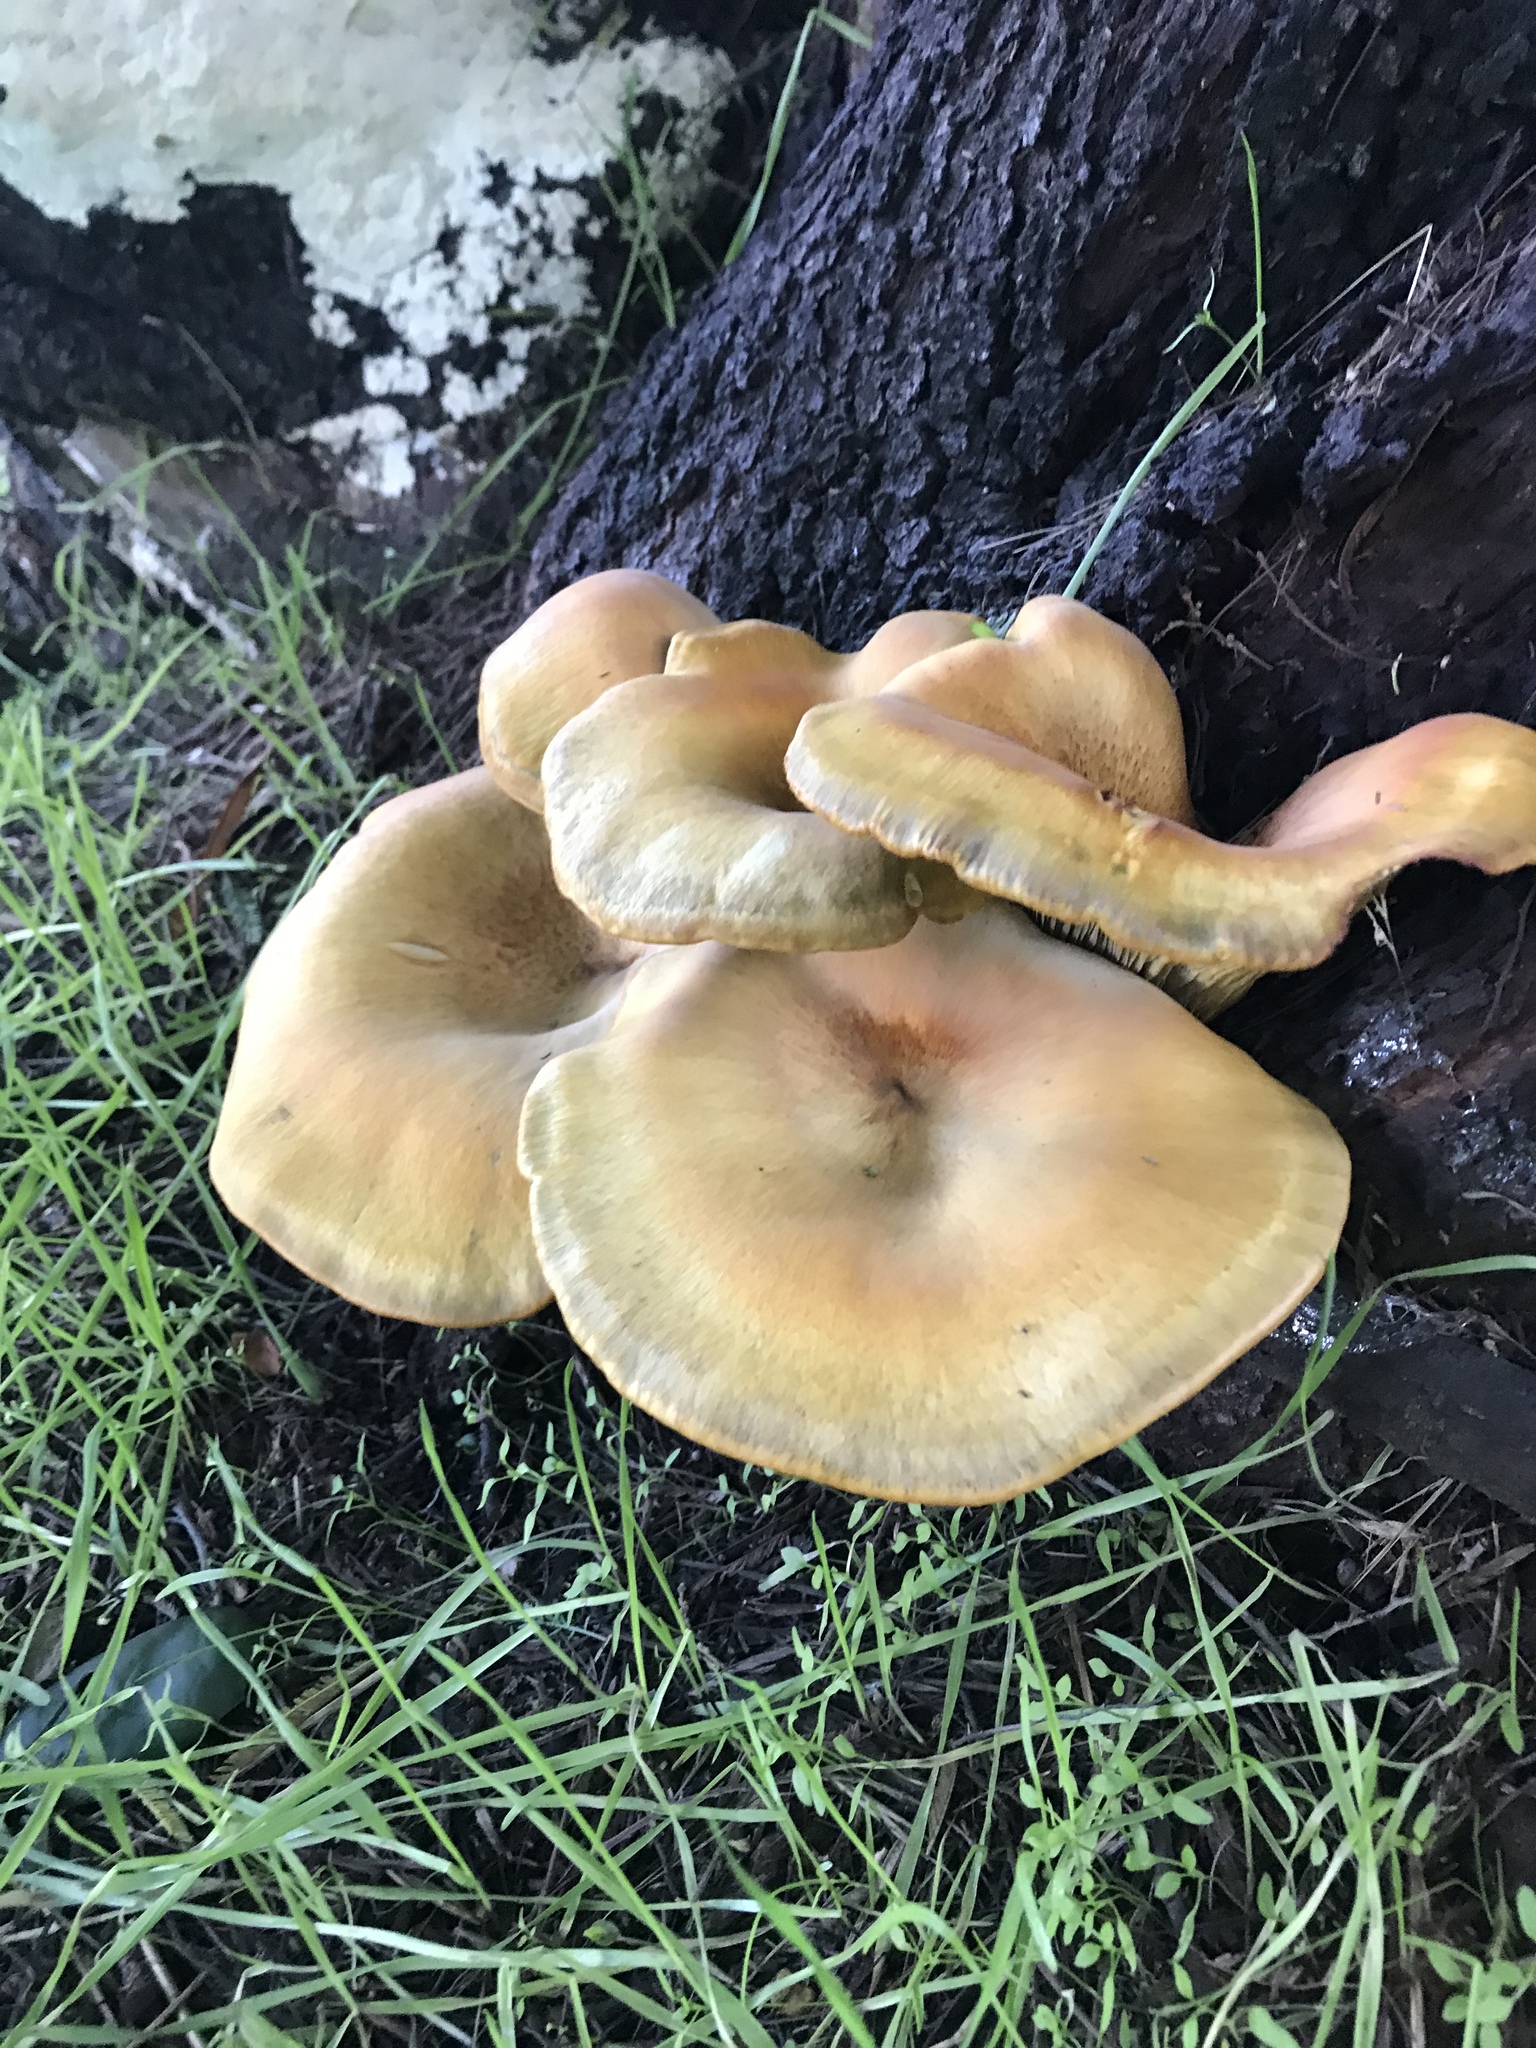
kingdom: Fungi
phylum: Basidiomycota
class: Agaricomycetes
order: Agaricales
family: Omphalotaceae
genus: Omphalotus
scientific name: Omphalotus olivascens
